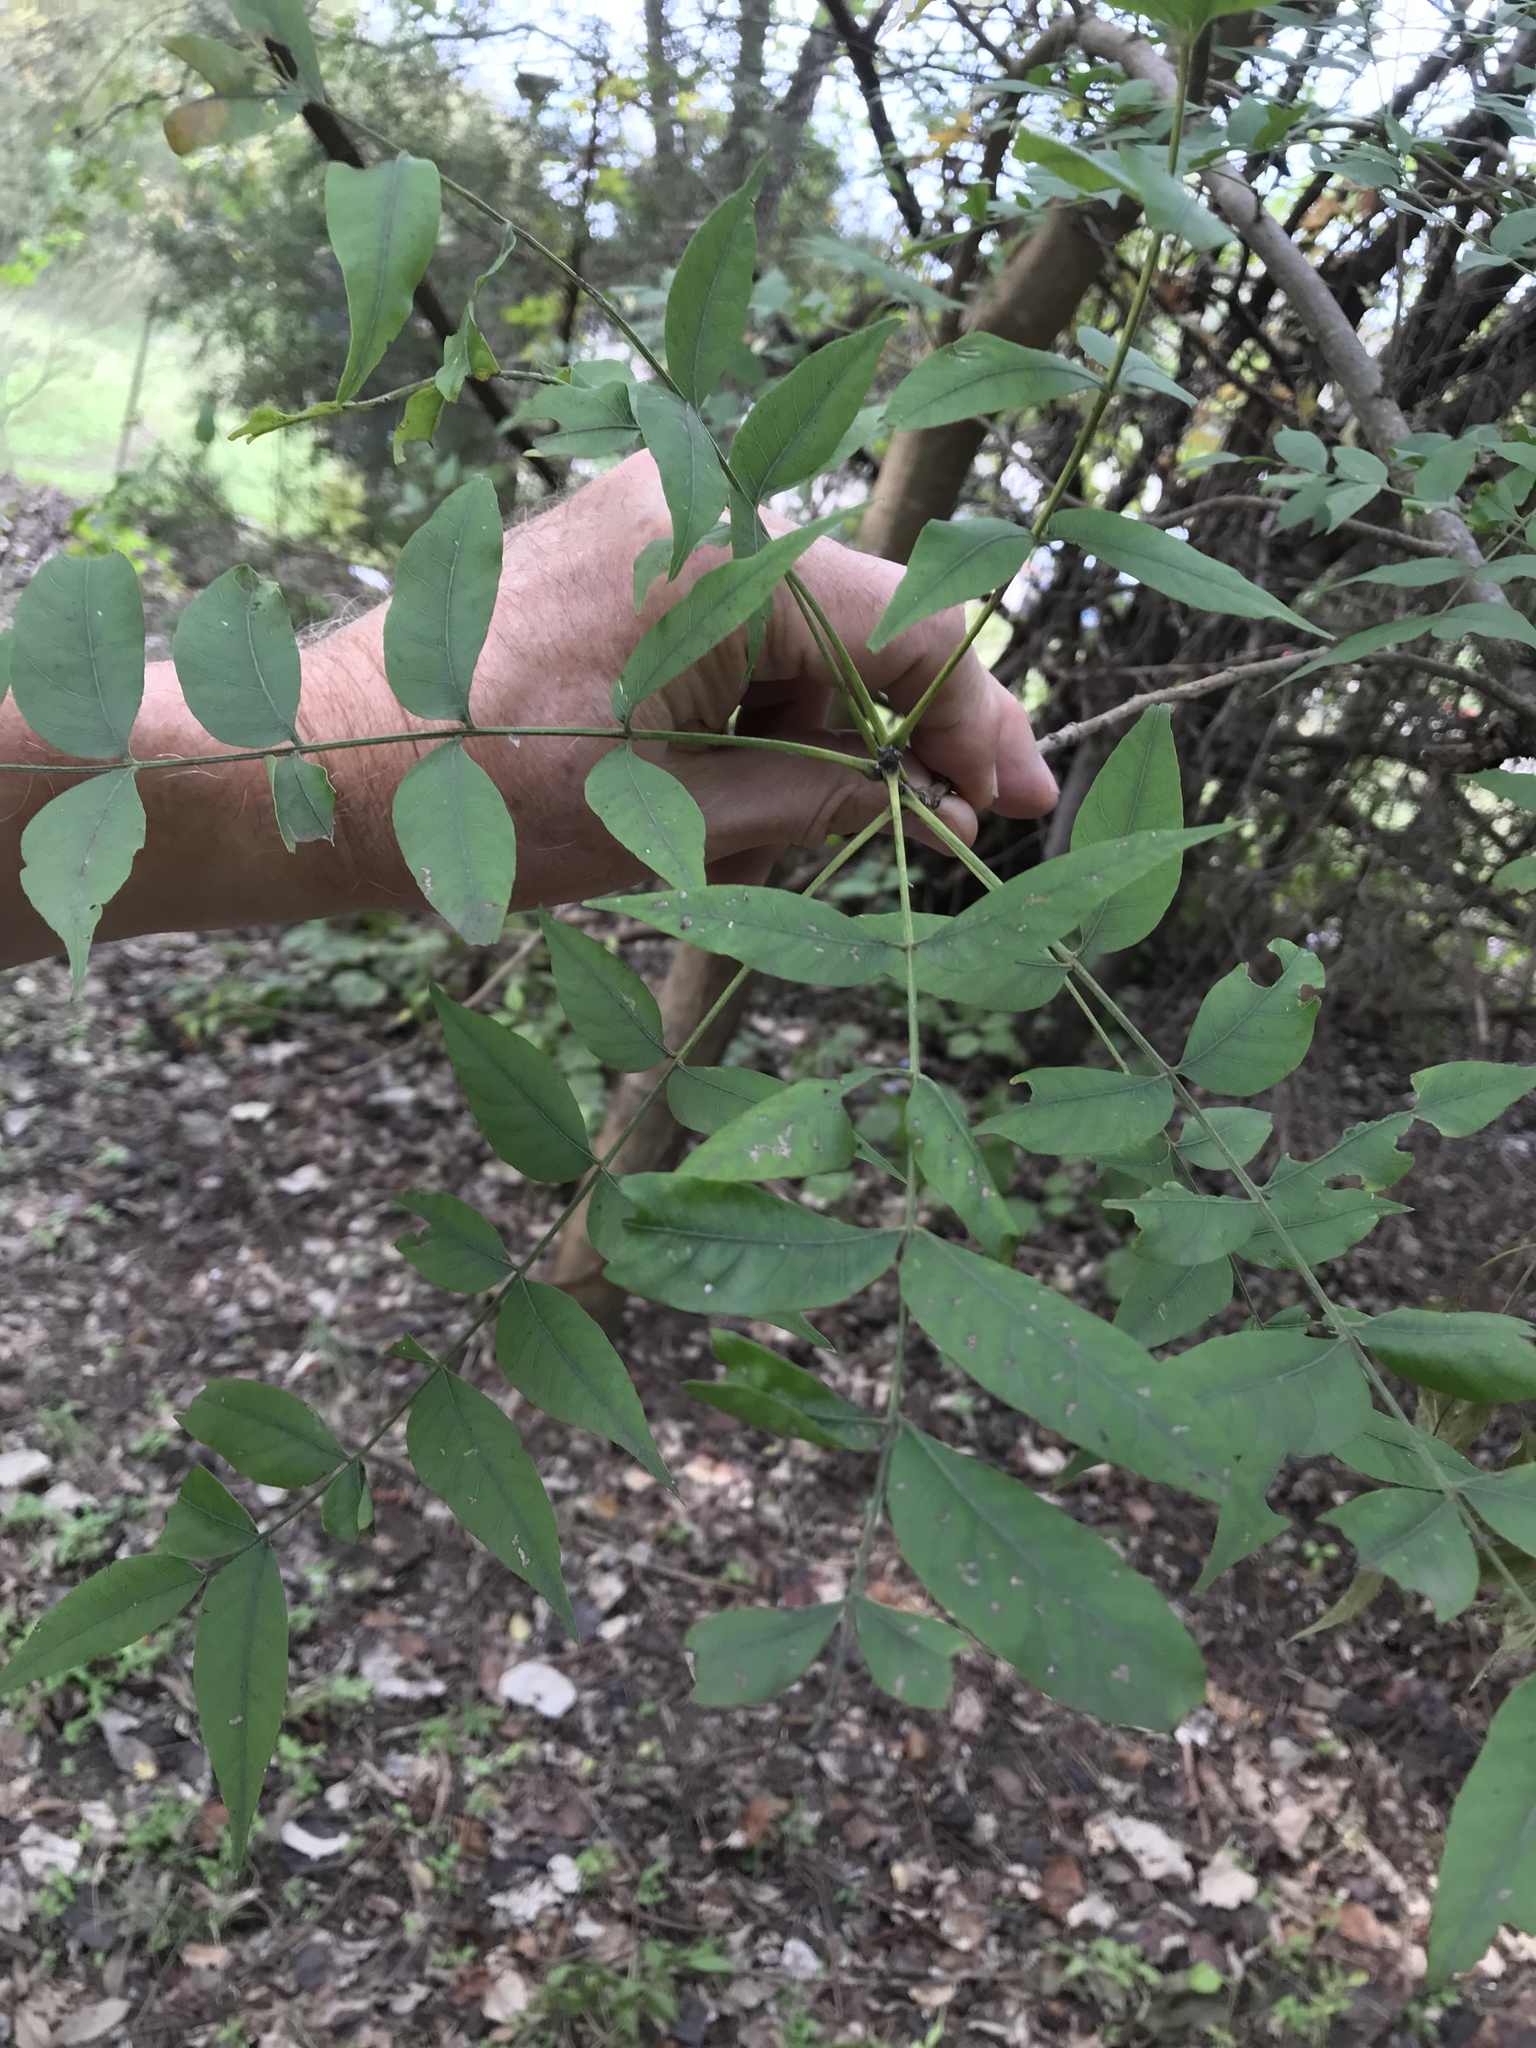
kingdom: Plantae
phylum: Tracheophyta
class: Magnoliopsida
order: Sapindales
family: Anacardiaceae
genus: Pistacia
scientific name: Pistacia chinensis
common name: Chinese pistache
